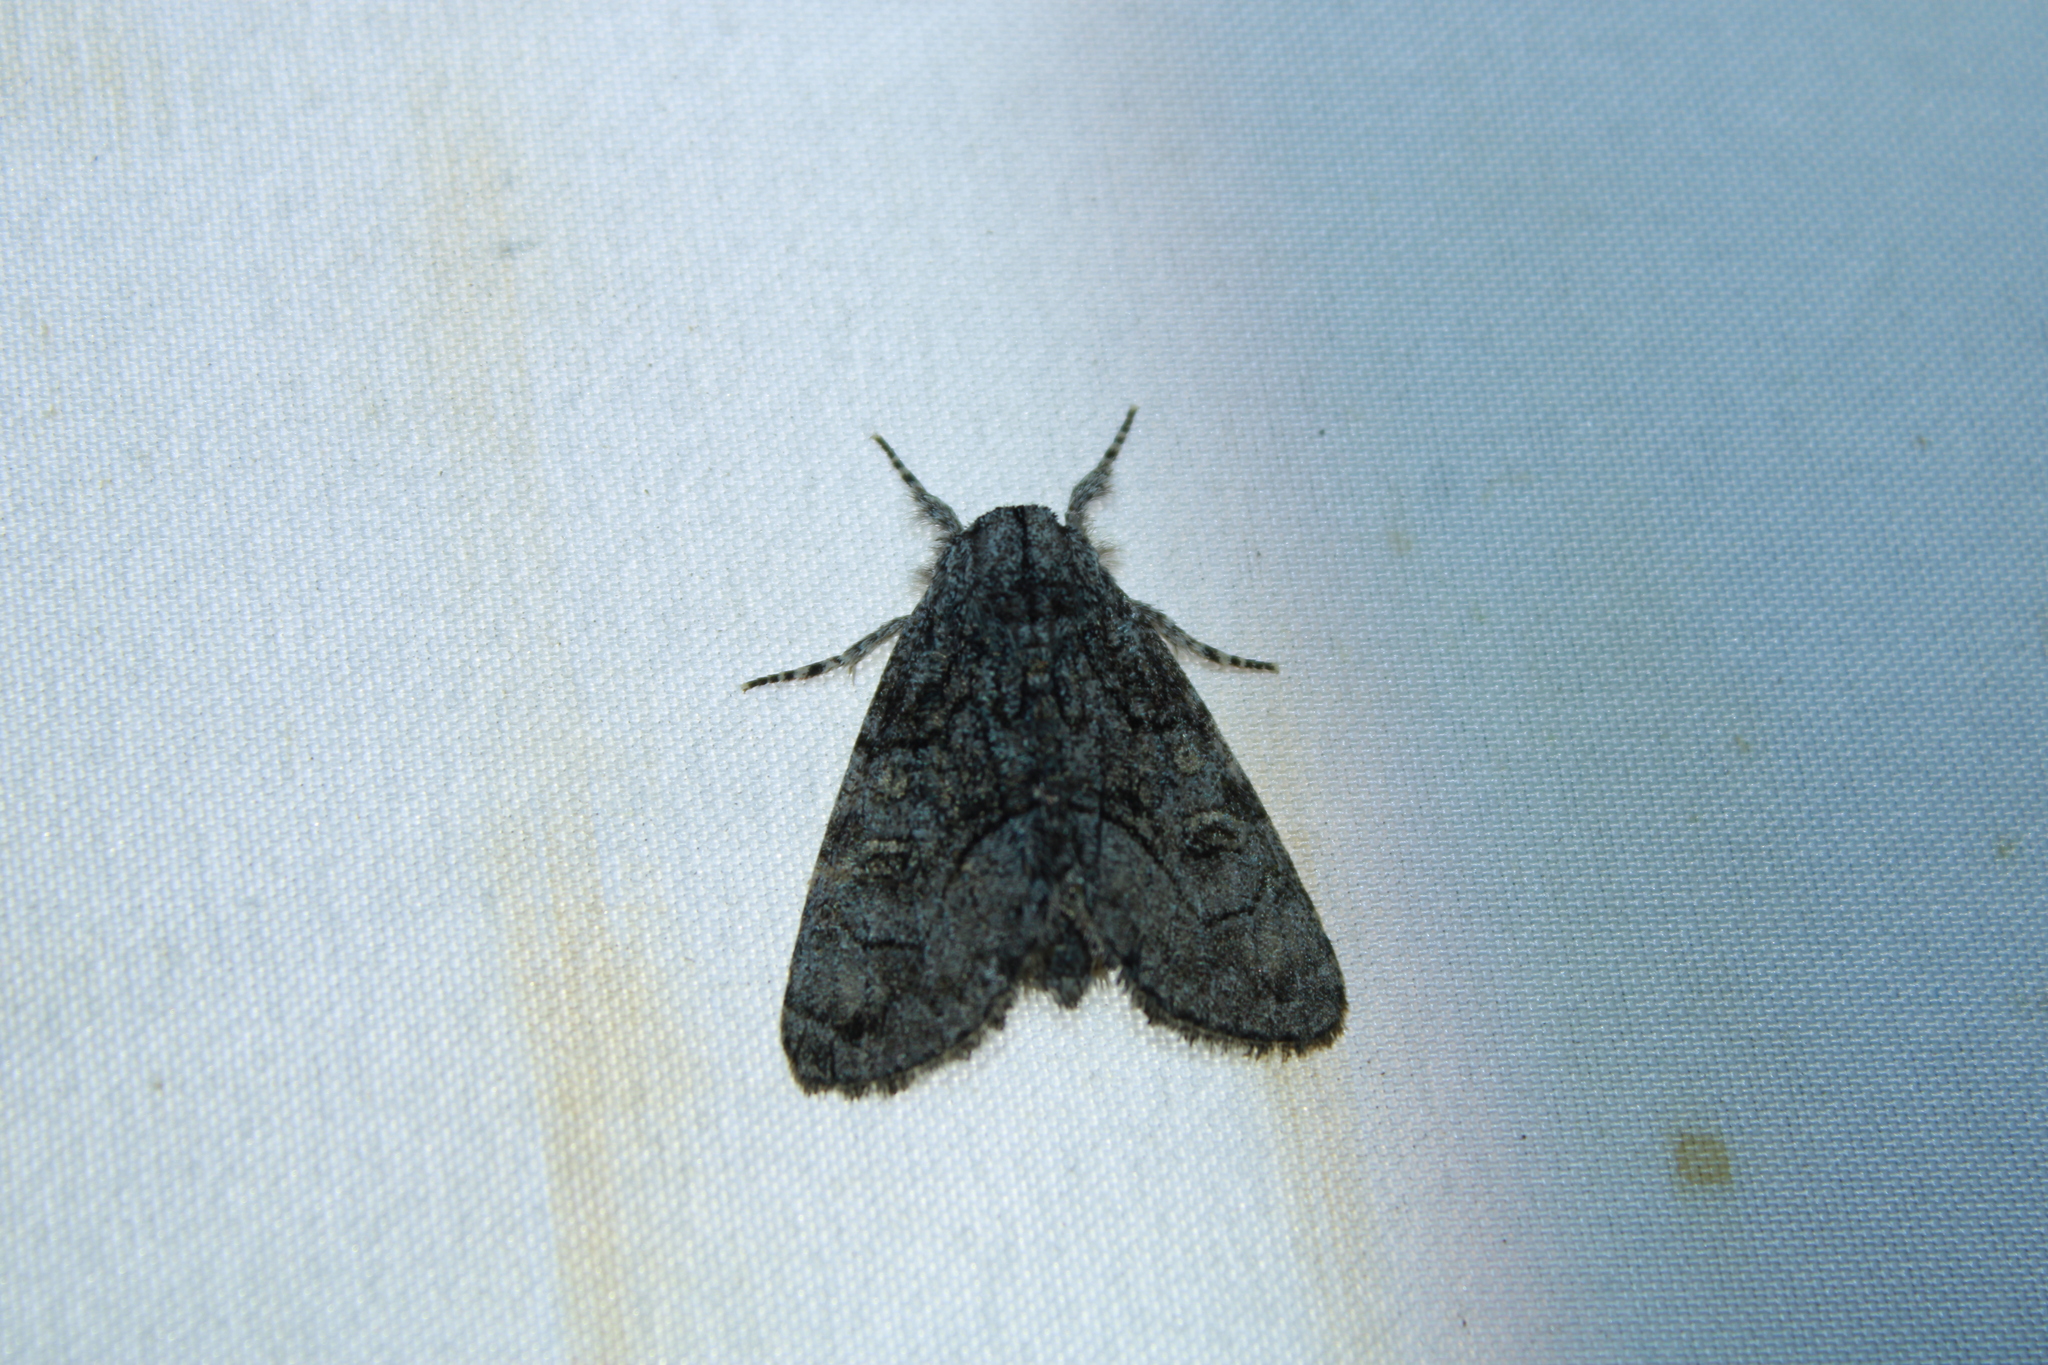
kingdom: Animalia
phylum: Arthropoda
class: Insecta
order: Lepidoptera
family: Noctuidae
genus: Raphia
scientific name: Raphia frater
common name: Brother
